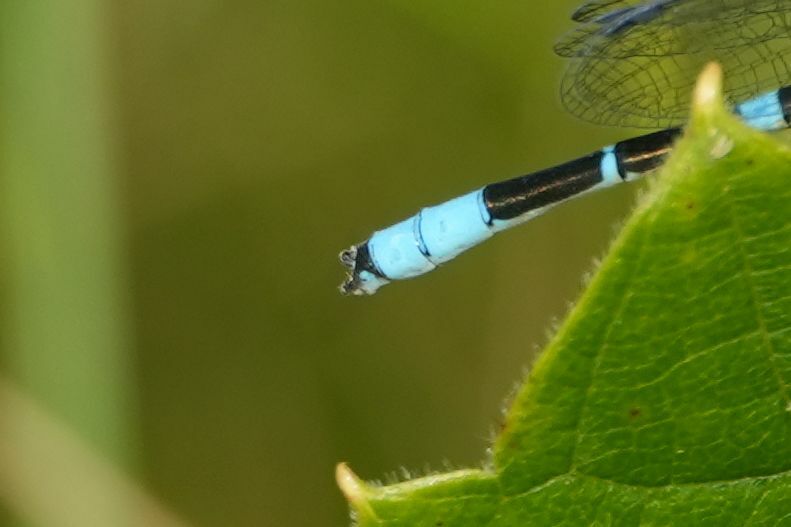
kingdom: Animalia
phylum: Arthropoda
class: Insecta
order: Odonata
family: Coenagrionidae
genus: Enallagma
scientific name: Enallagma carunculatum
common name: Tule bluet
